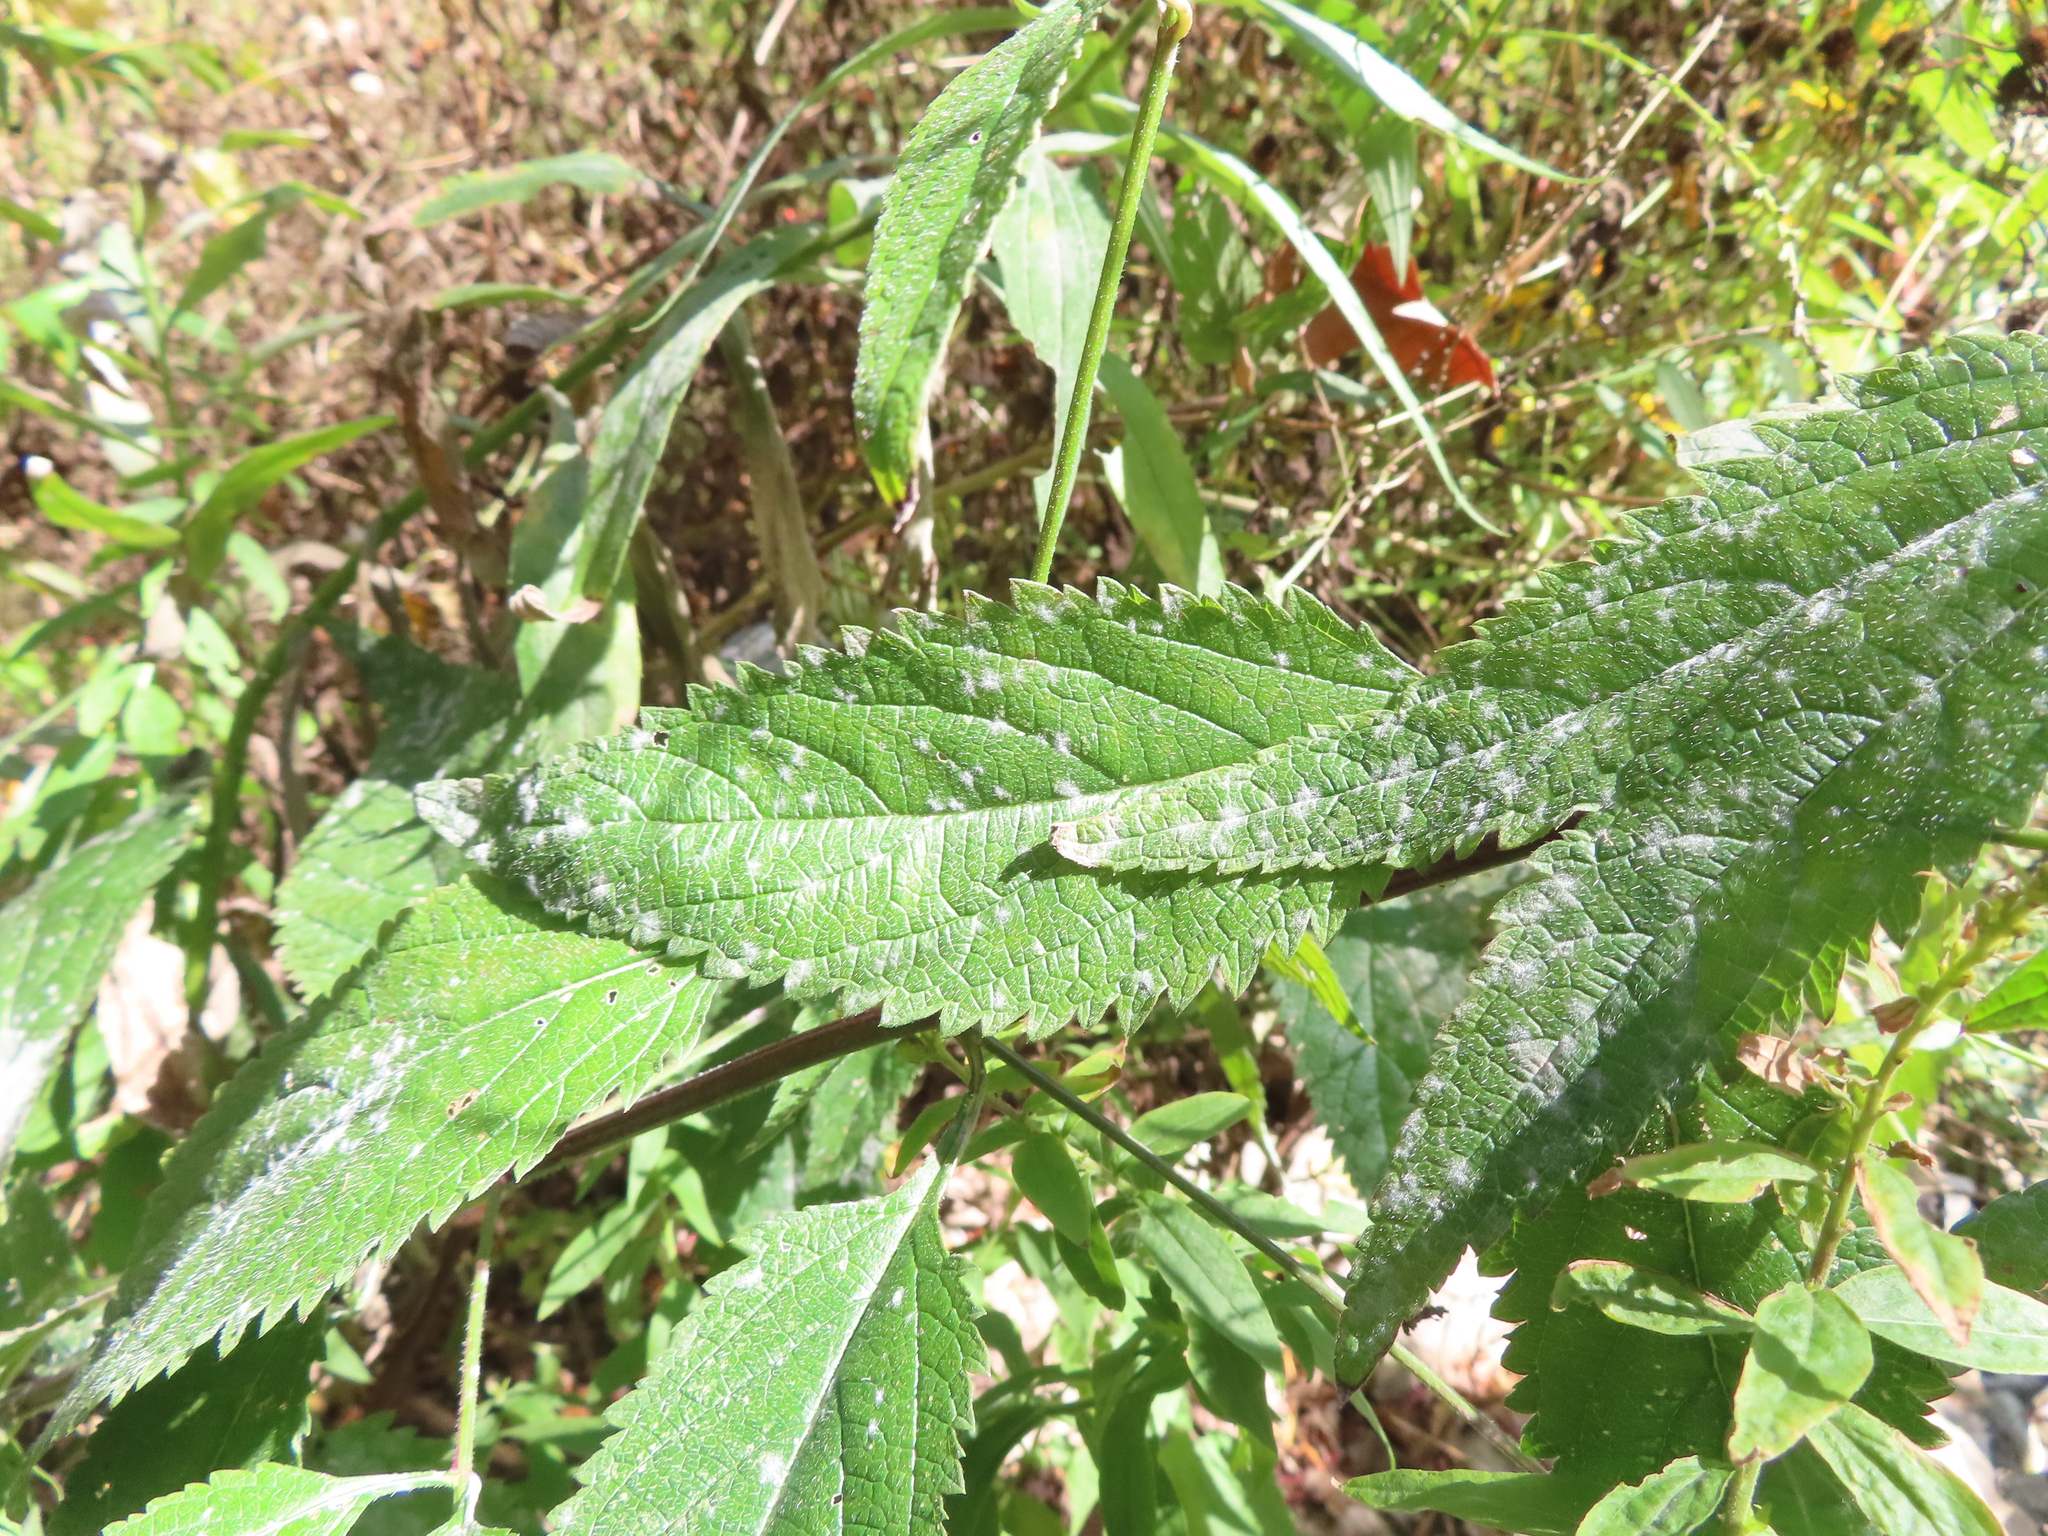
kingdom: Fungi
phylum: Ascomycota
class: Leotiomycetes
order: Helotiales
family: Erysiphaceae
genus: Golovinomyces
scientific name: Golovinomyces verbenae
